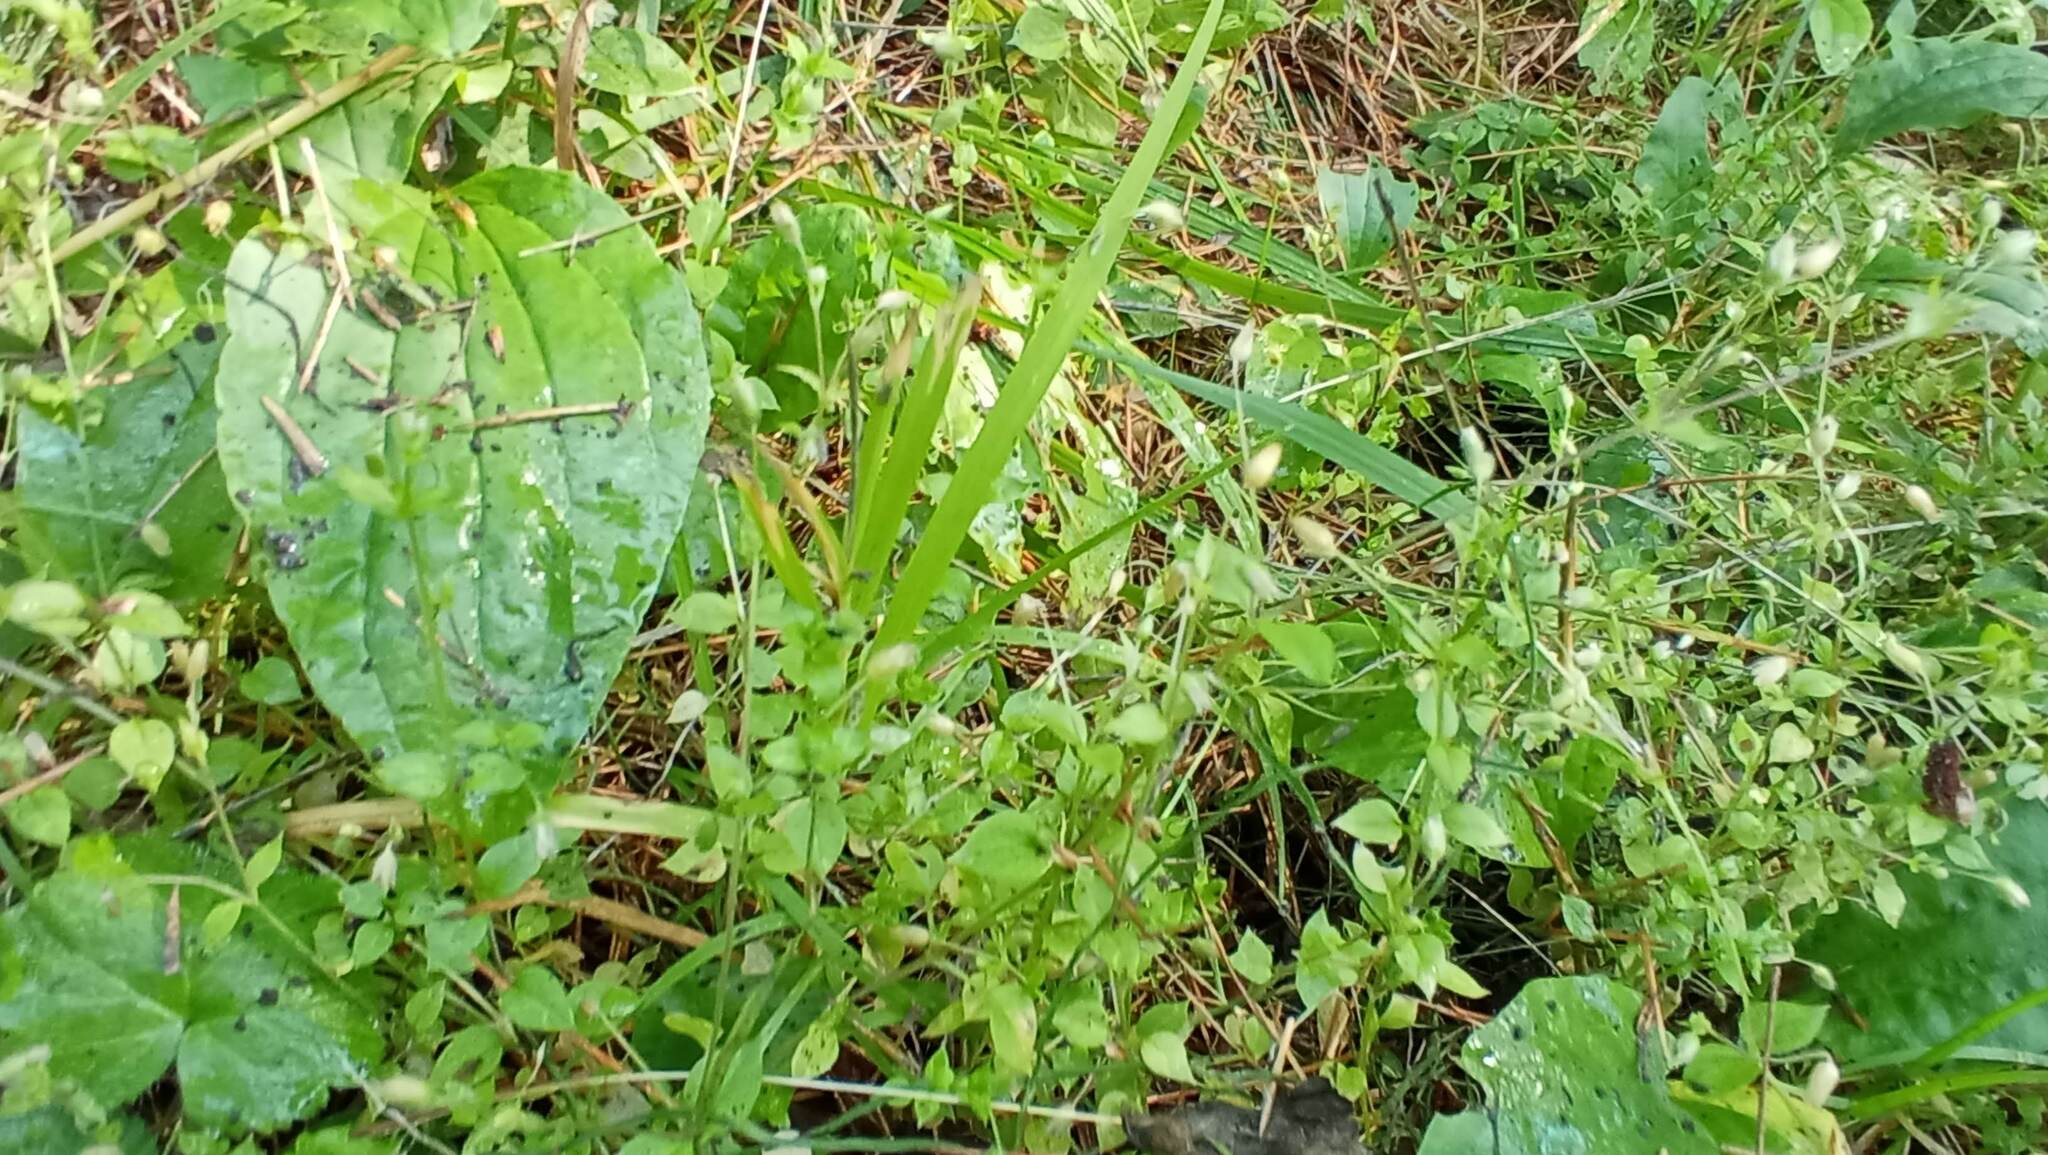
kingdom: Plantae
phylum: Tracheophyta
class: Magnoliopsida
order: Caryophyllales
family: Caryophyllaceae
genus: Stellaria
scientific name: Stellaria media
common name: Common chickweed
